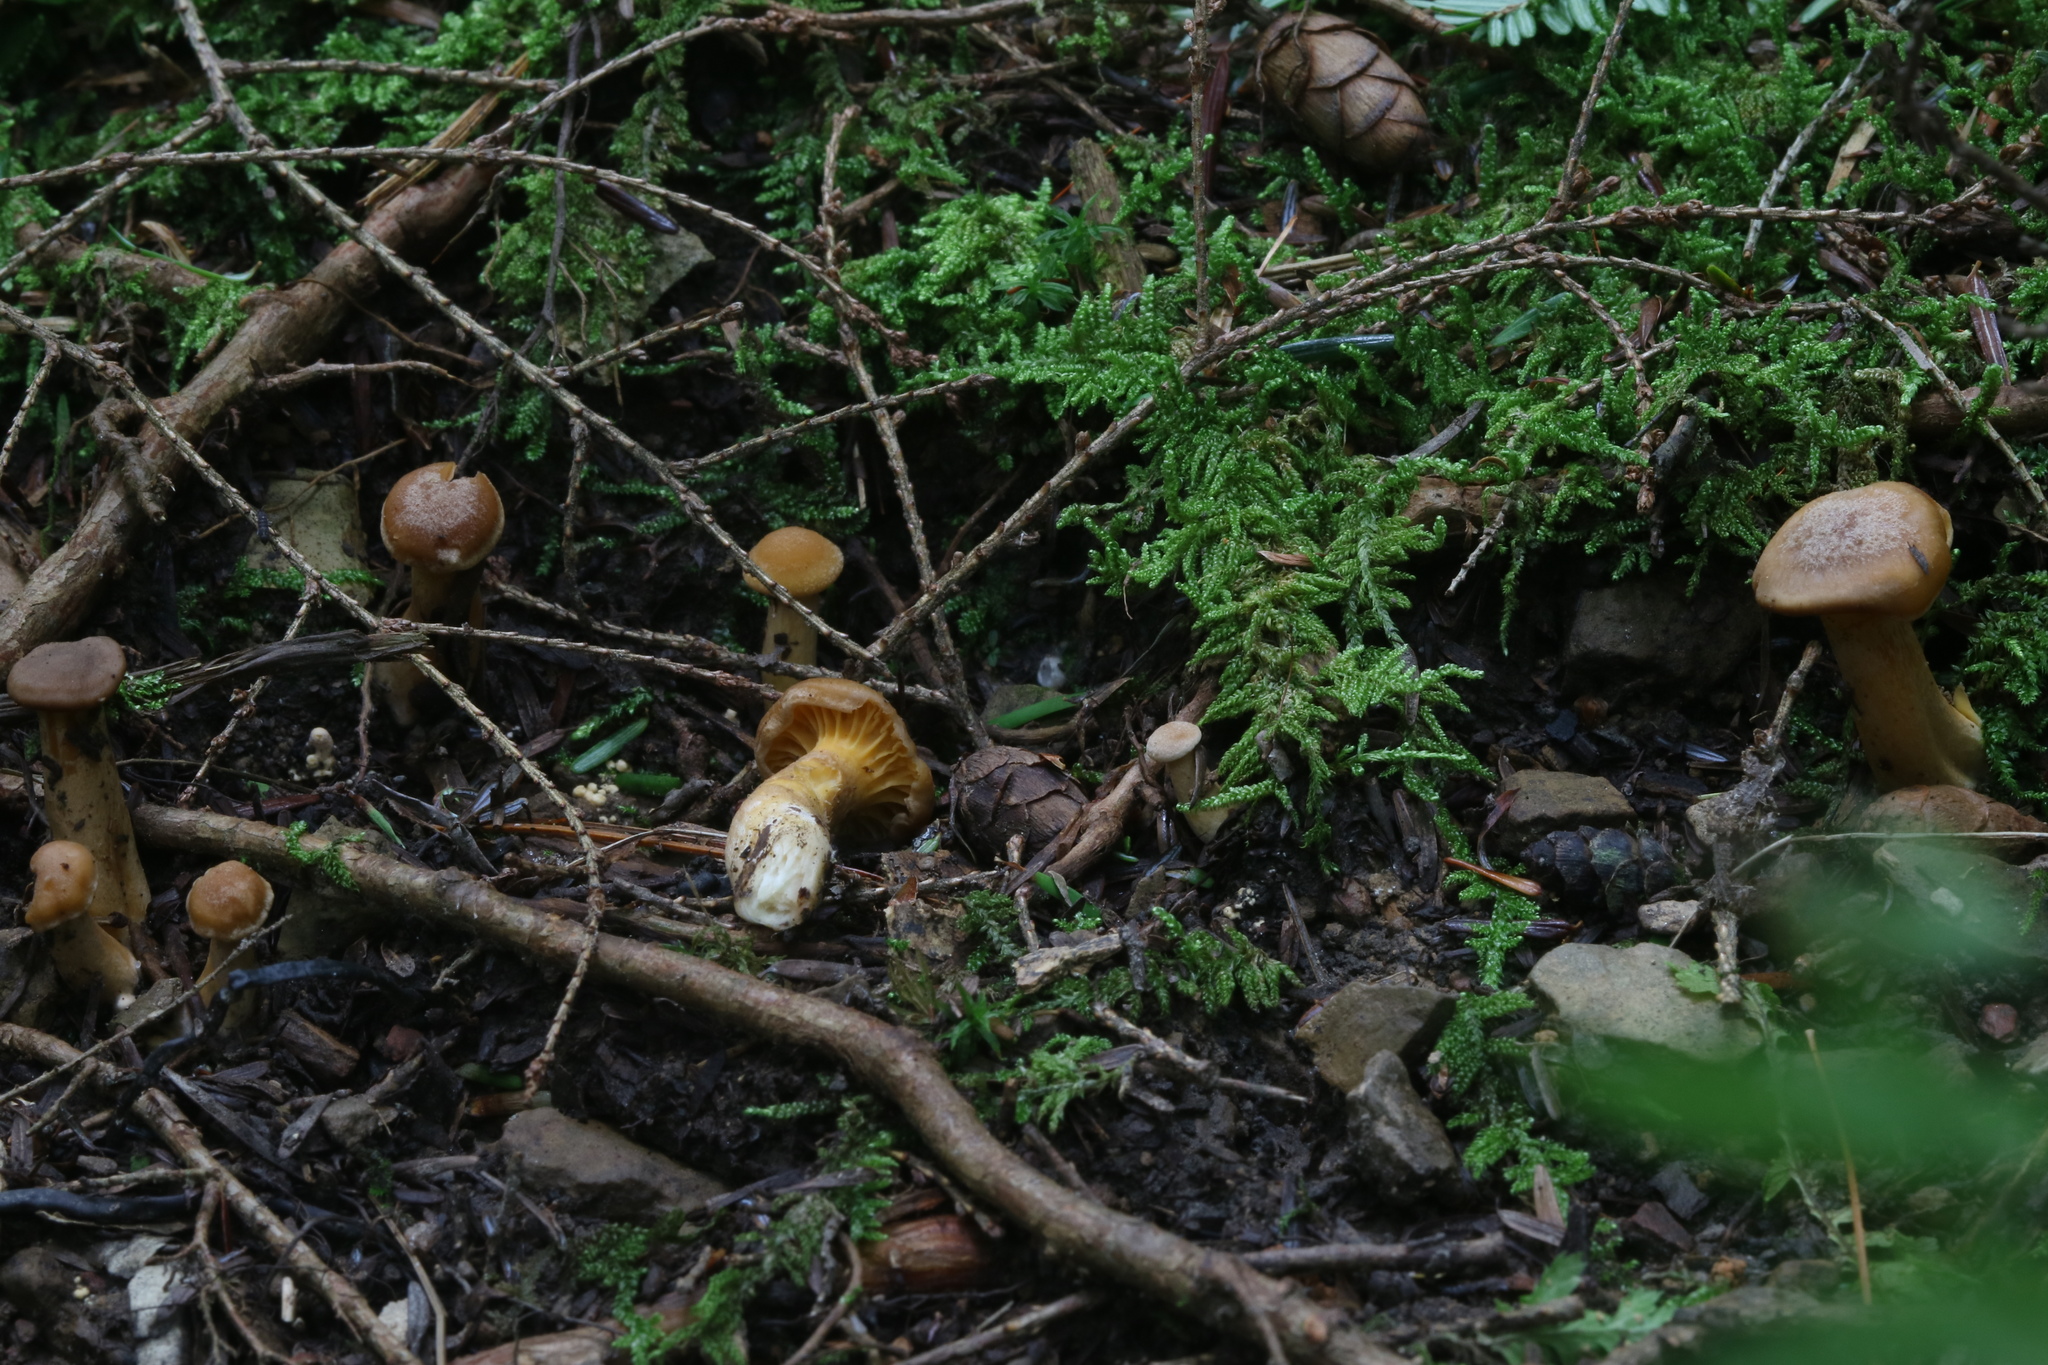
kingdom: Fungi
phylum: Basidiomycota
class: Agaricomycetes
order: Cantharellales
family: Hydnaceae
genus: Cantharellus
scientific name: Cantharellus appalachiensis
